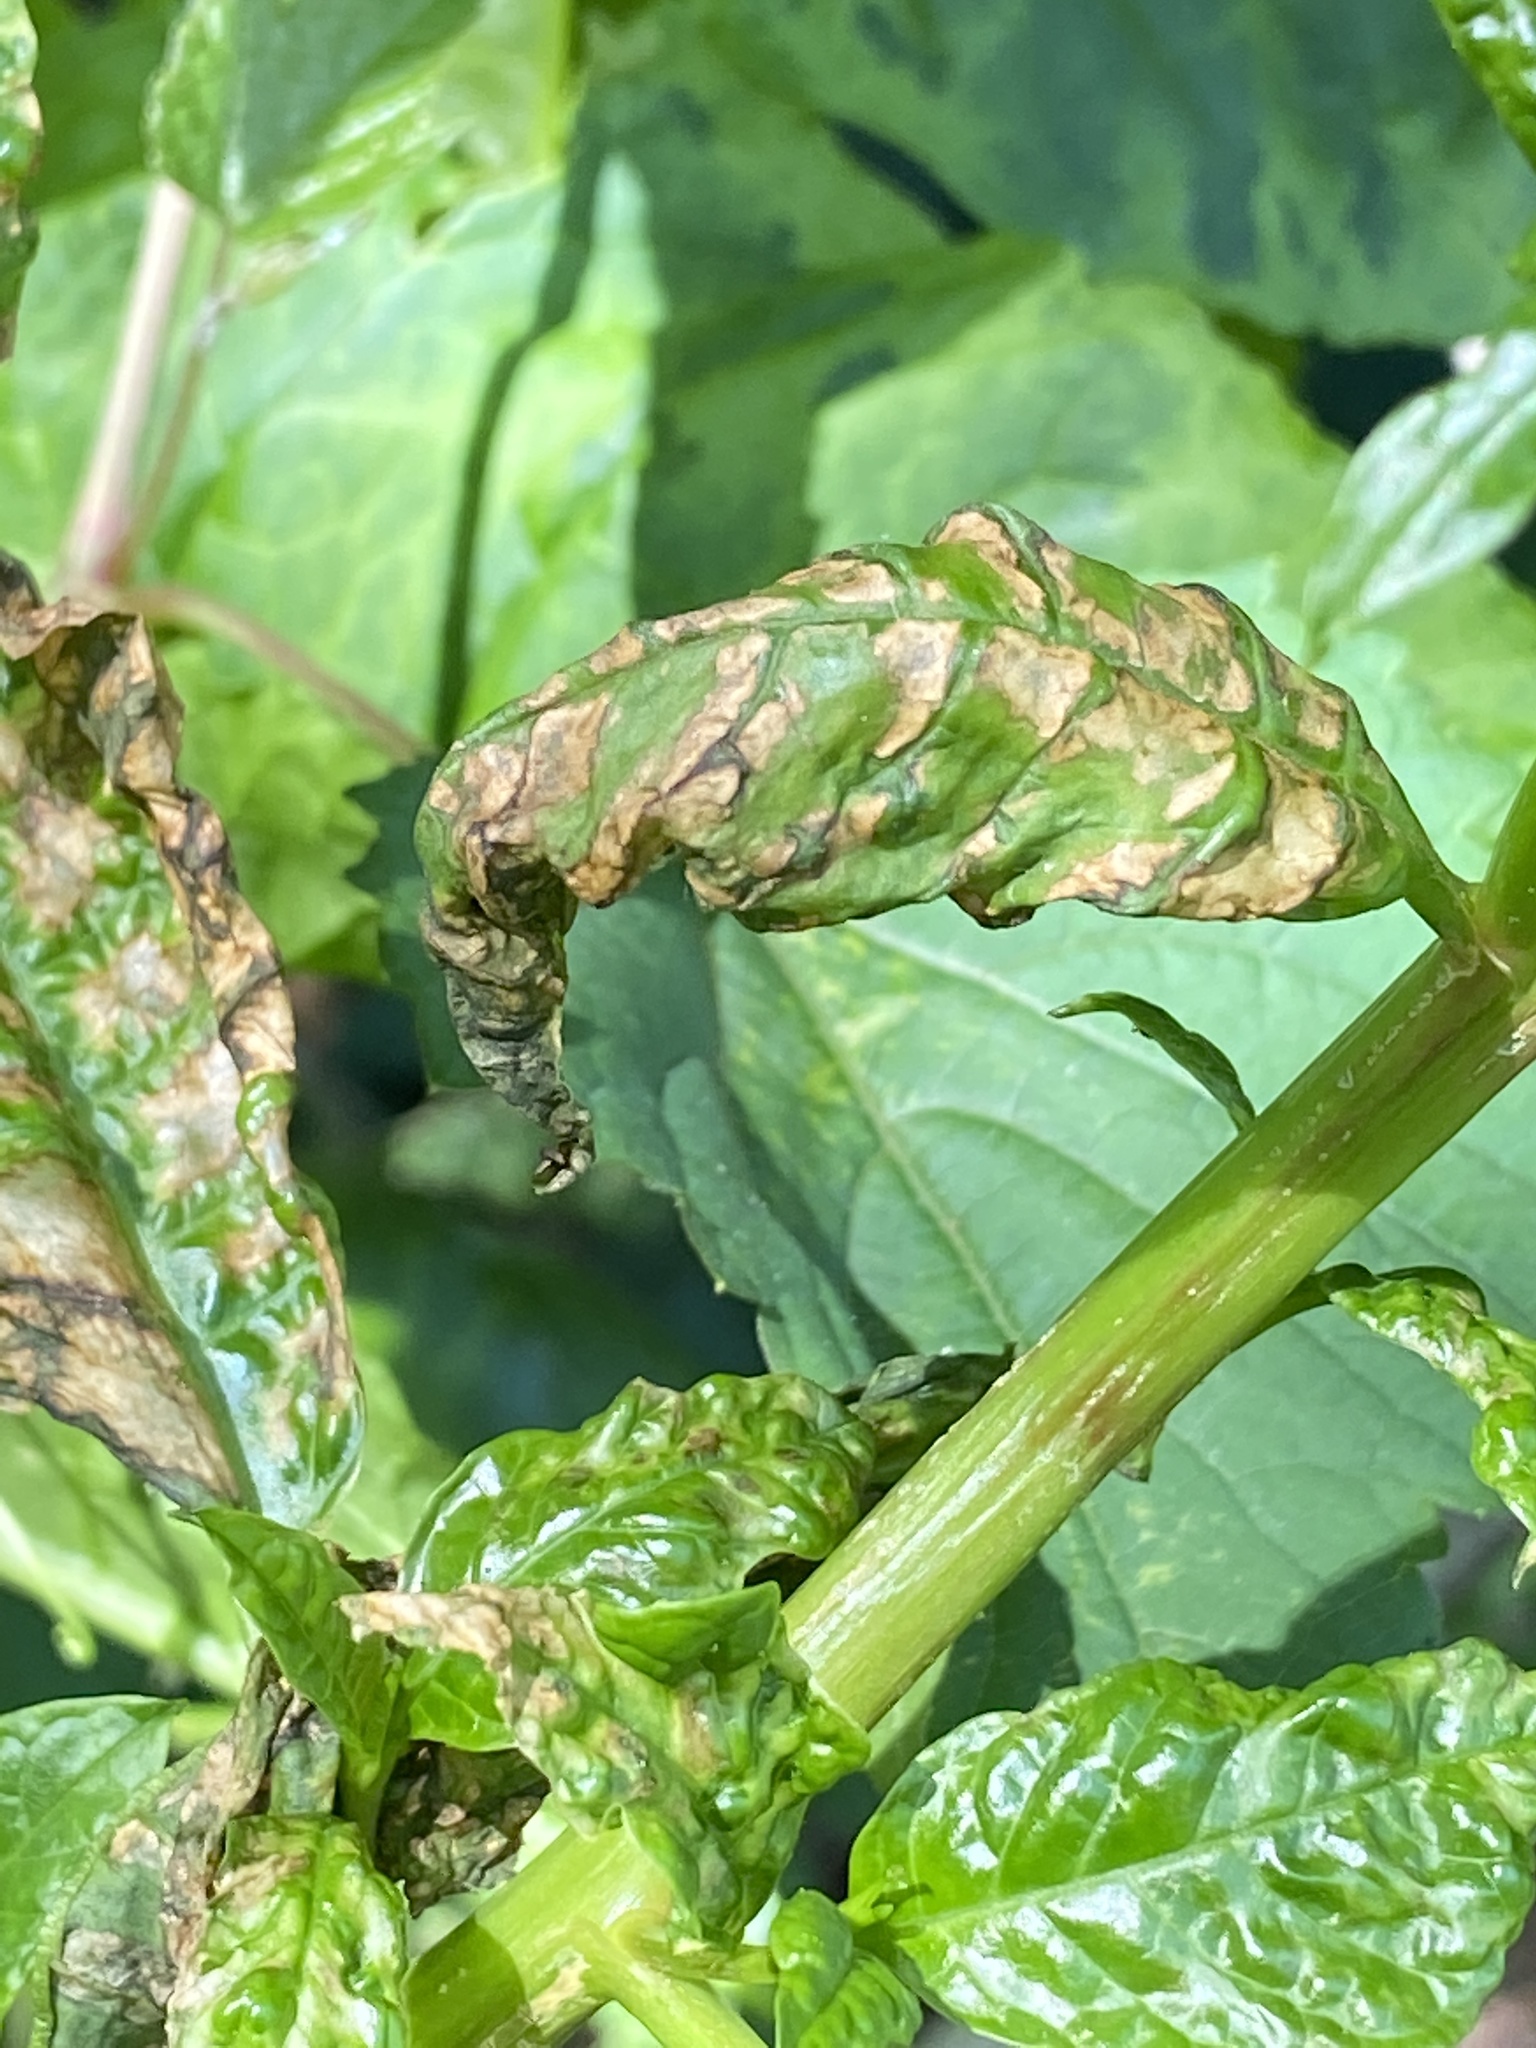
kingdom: Viruses
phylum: Pisuviricota
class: Stelpaviricetes
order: Patatavirales
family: Potyviridae
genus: Potyvirus
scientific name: Potyvirus Pokeweed mosaic virus
